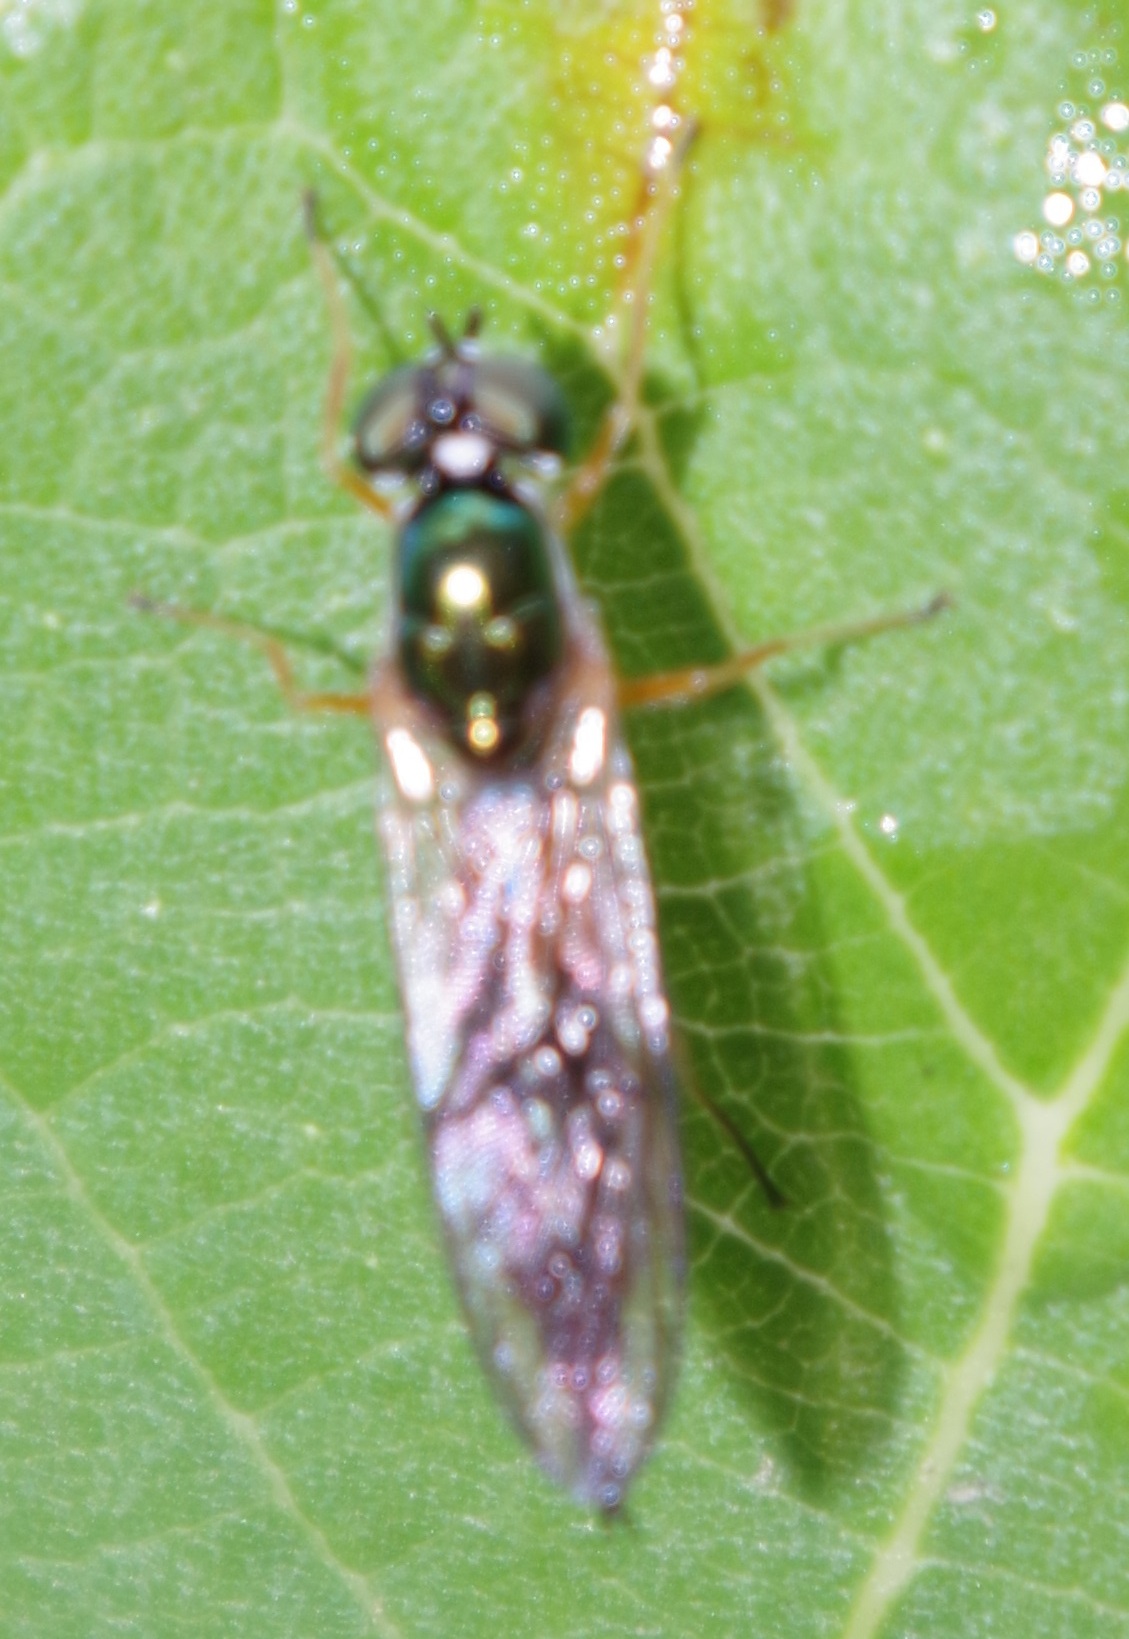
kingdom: Animalia
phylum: Arthropoda
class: Insecta
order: Diptera
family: Stratiomyidae
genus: Sargus
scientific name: Sargus bipunctatus
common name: Twin-spot centurion
